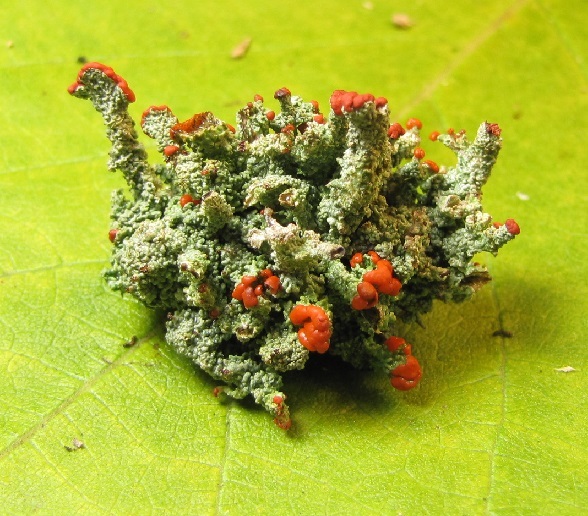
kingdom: Fungi
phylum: Ascomycota
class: Lecanoromycetes
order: Lecanorales
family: Cladoniaceae
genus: Cladonia
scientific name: Cladonia cristatella
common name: British soldier lichen
